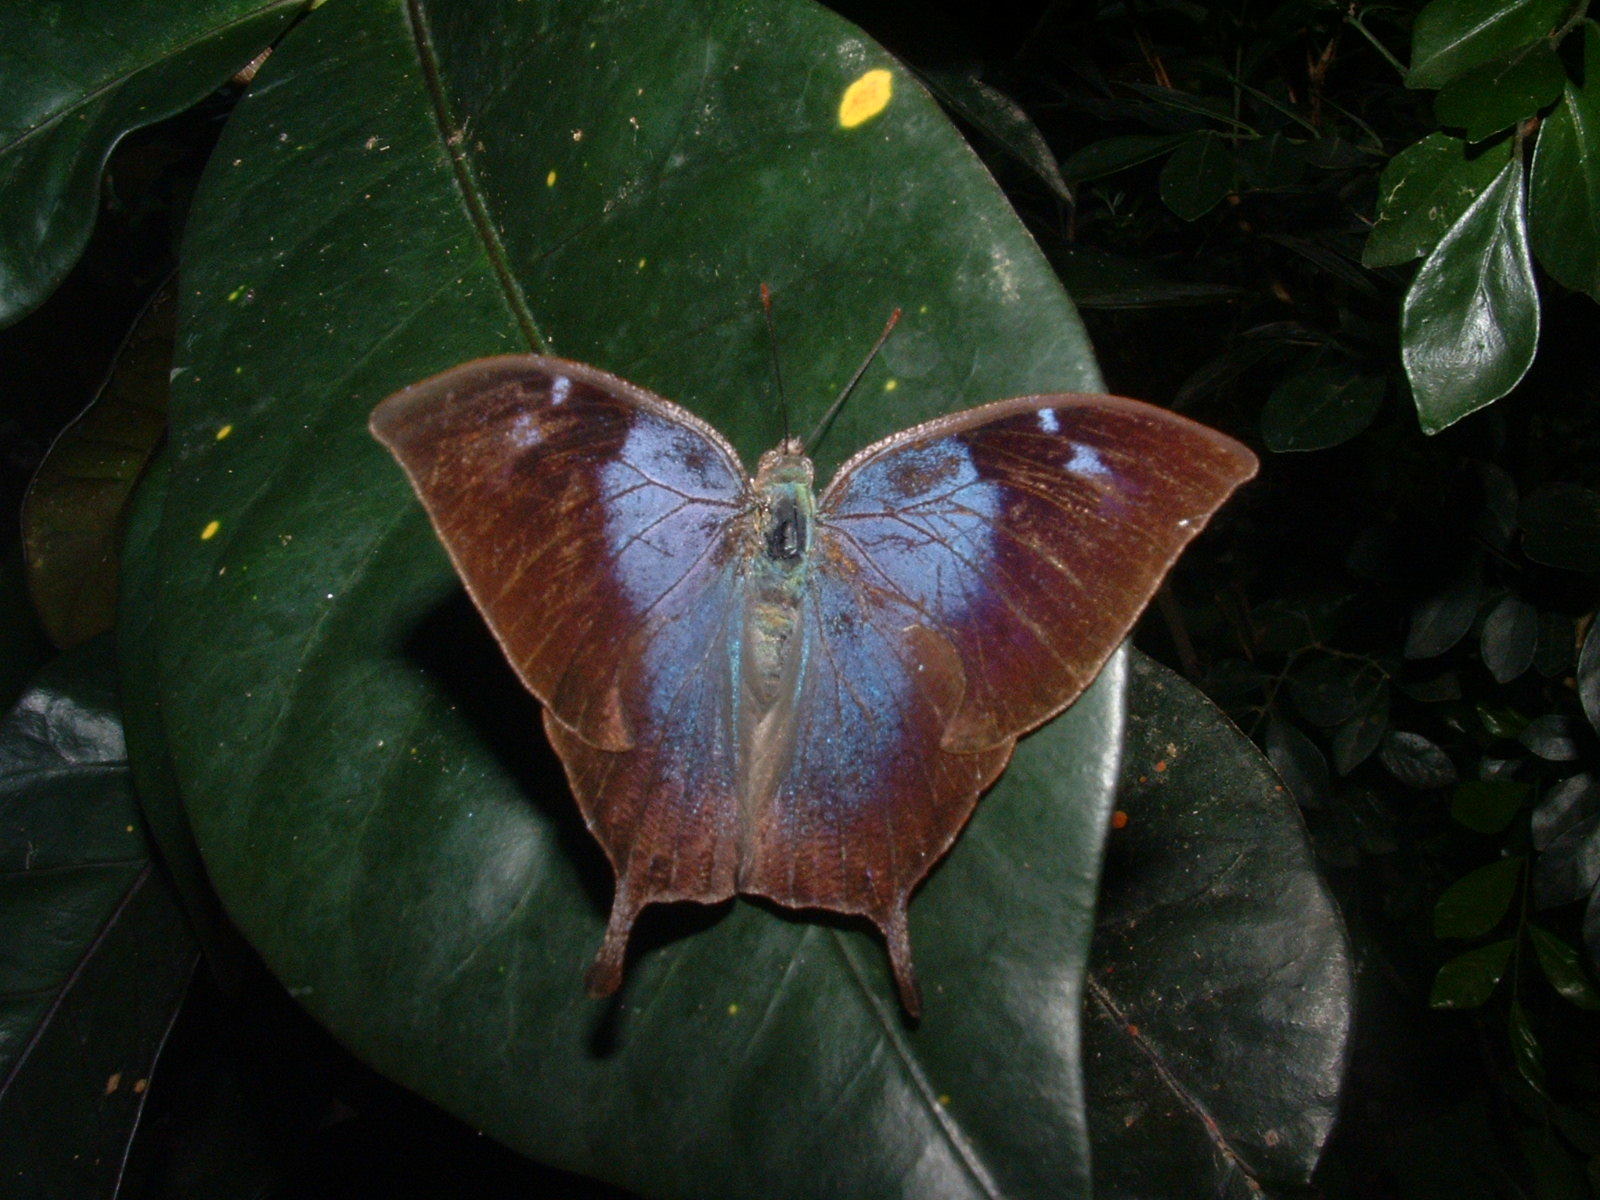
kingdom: Animalia
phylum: Arthropoda
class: Insecta
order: Lepidoptera
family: Nymphalidae
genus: Memphis
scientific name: Memphis moruus
